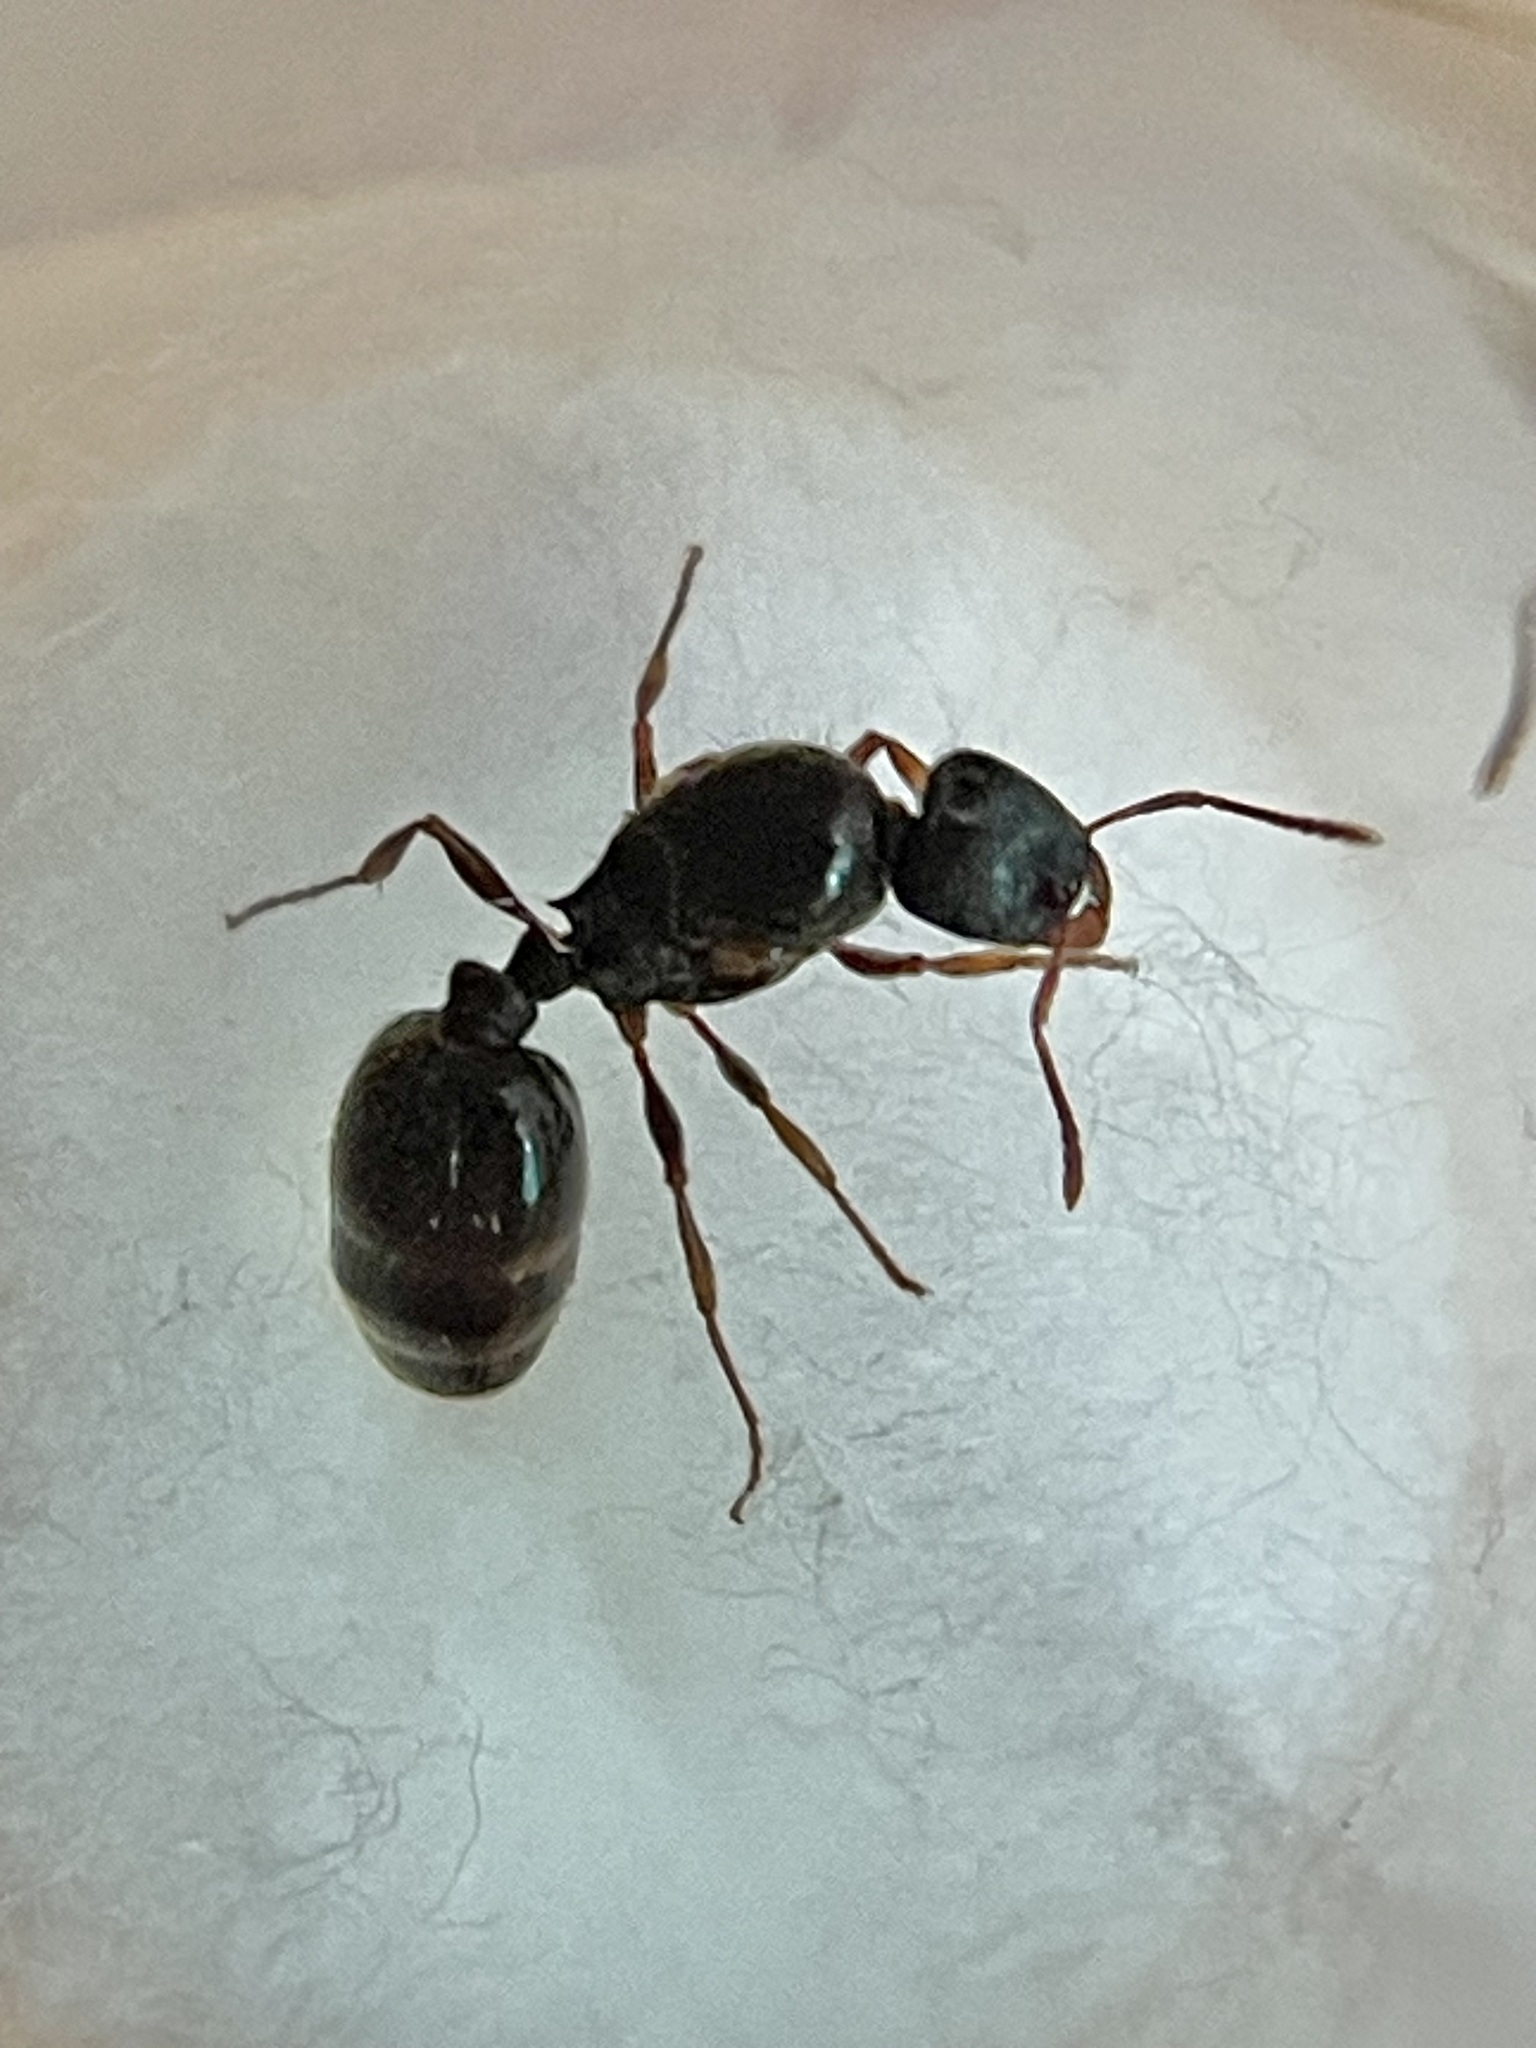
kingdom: Animalia
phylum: Arthropoda
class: Insecta
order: Hymenoptera
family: Formicidae
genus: Tetramorium
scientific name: Tetramorium immigrans
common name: Pavement ant
